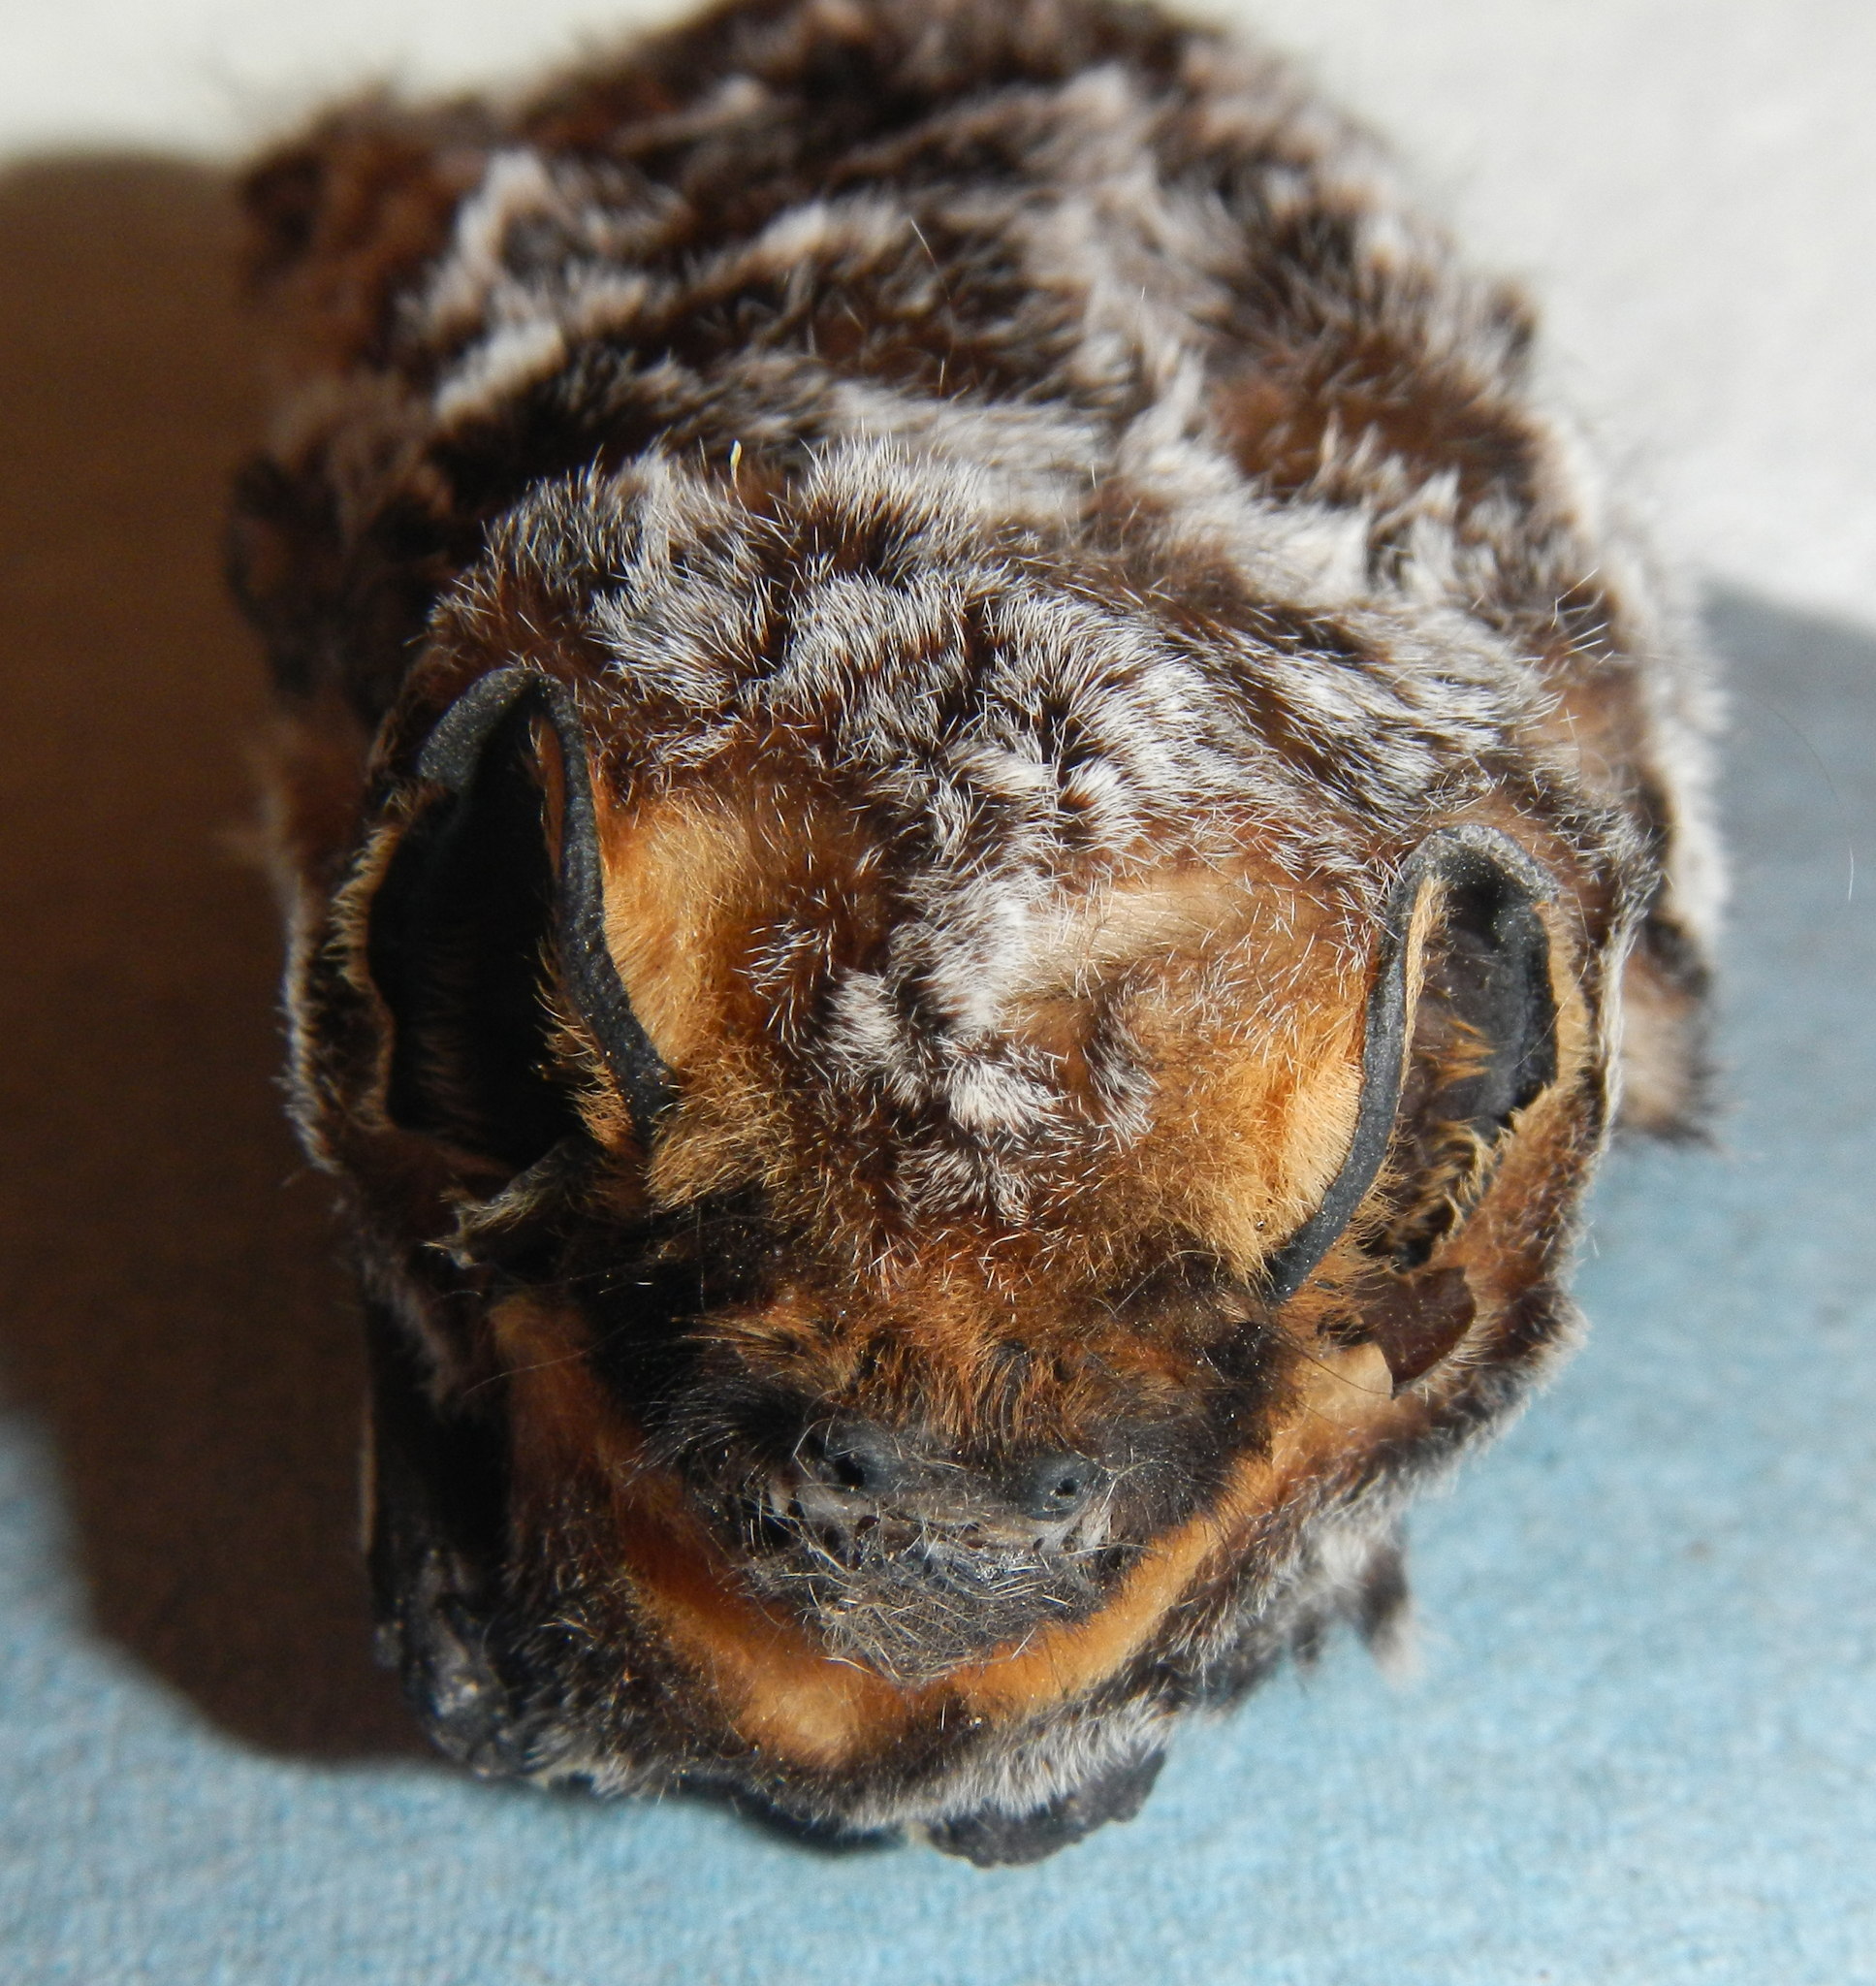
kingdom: Animalia
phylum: Chordata
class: Mammalia
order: Chiroptera
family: Vespertilionidae
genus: Aeorestes
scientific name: Aeorestes cinereus
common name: North american hoary bat
